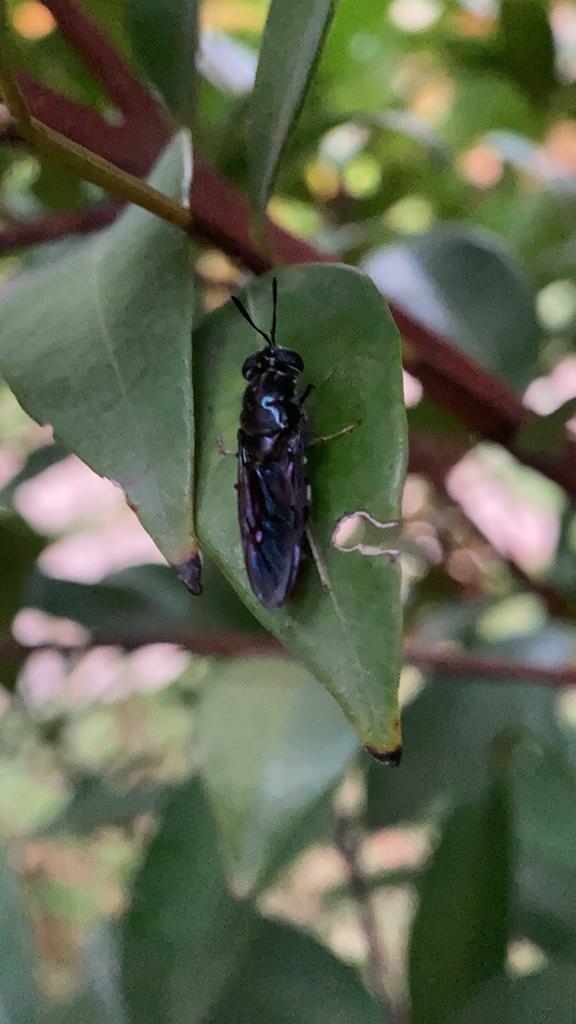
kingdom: Animalia
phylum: Arthropoda
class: Insecta
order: Diptera
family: Stratiomyidae
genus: Hermetia
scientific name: Hermetia illucens
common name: Black soldier fly
